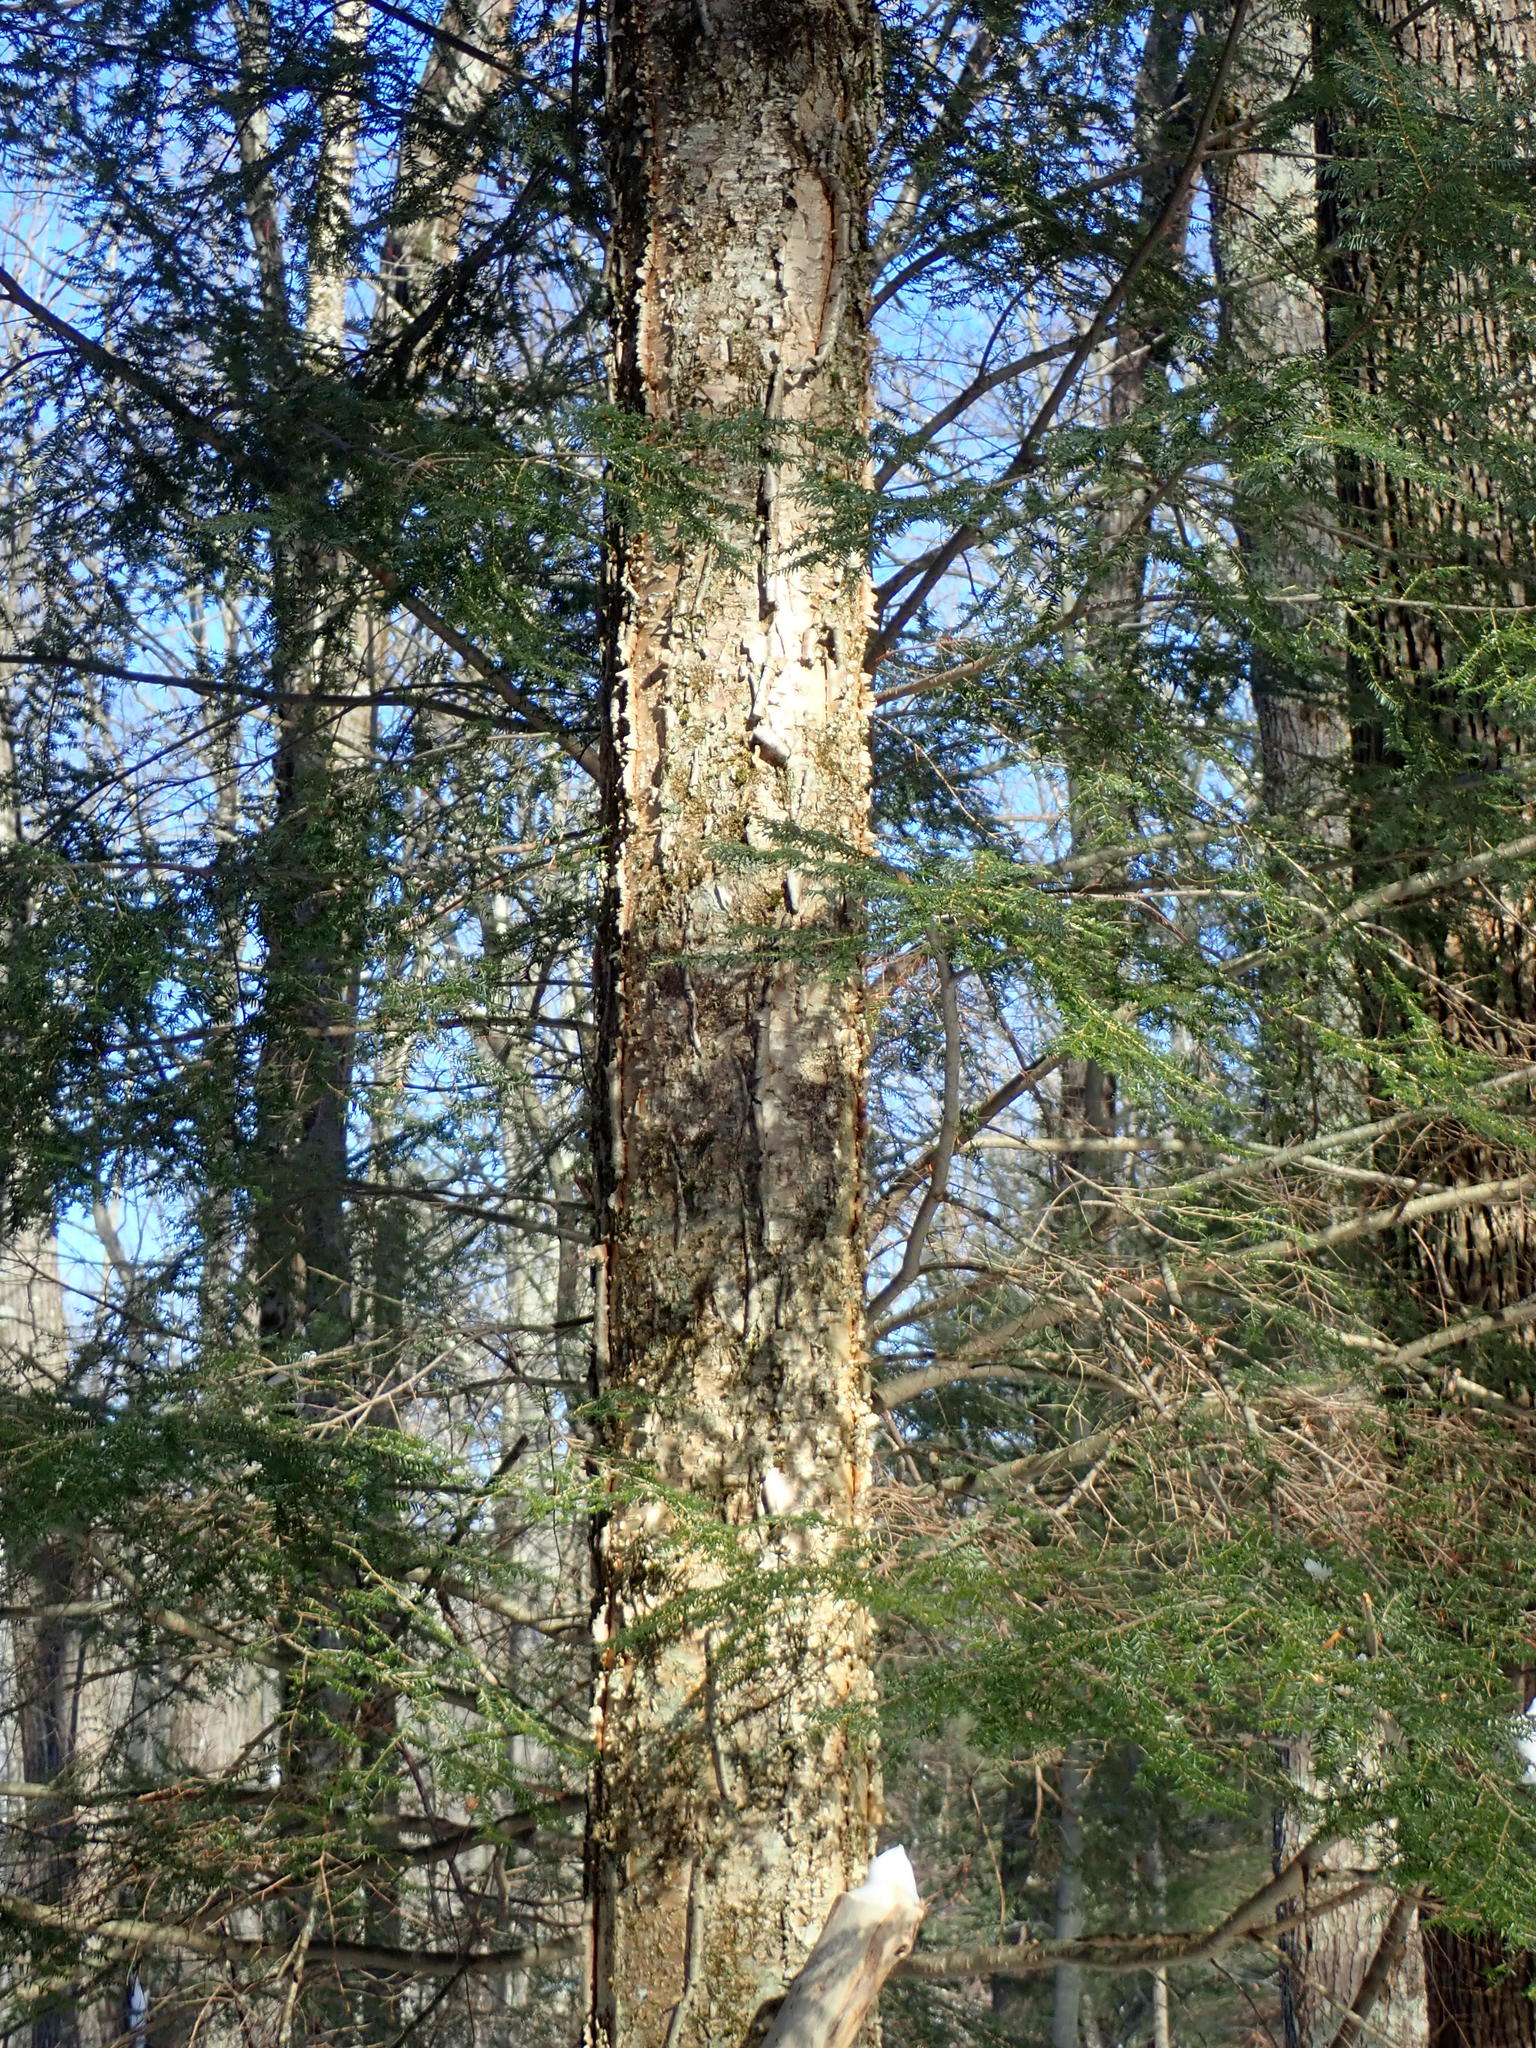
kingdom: Plantae
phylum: Tracheophyta
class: Magnoliopsida
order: Fagales
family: Betulaceae
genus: Betula
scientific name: Betula alleghaniensis
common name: Yellow birch
